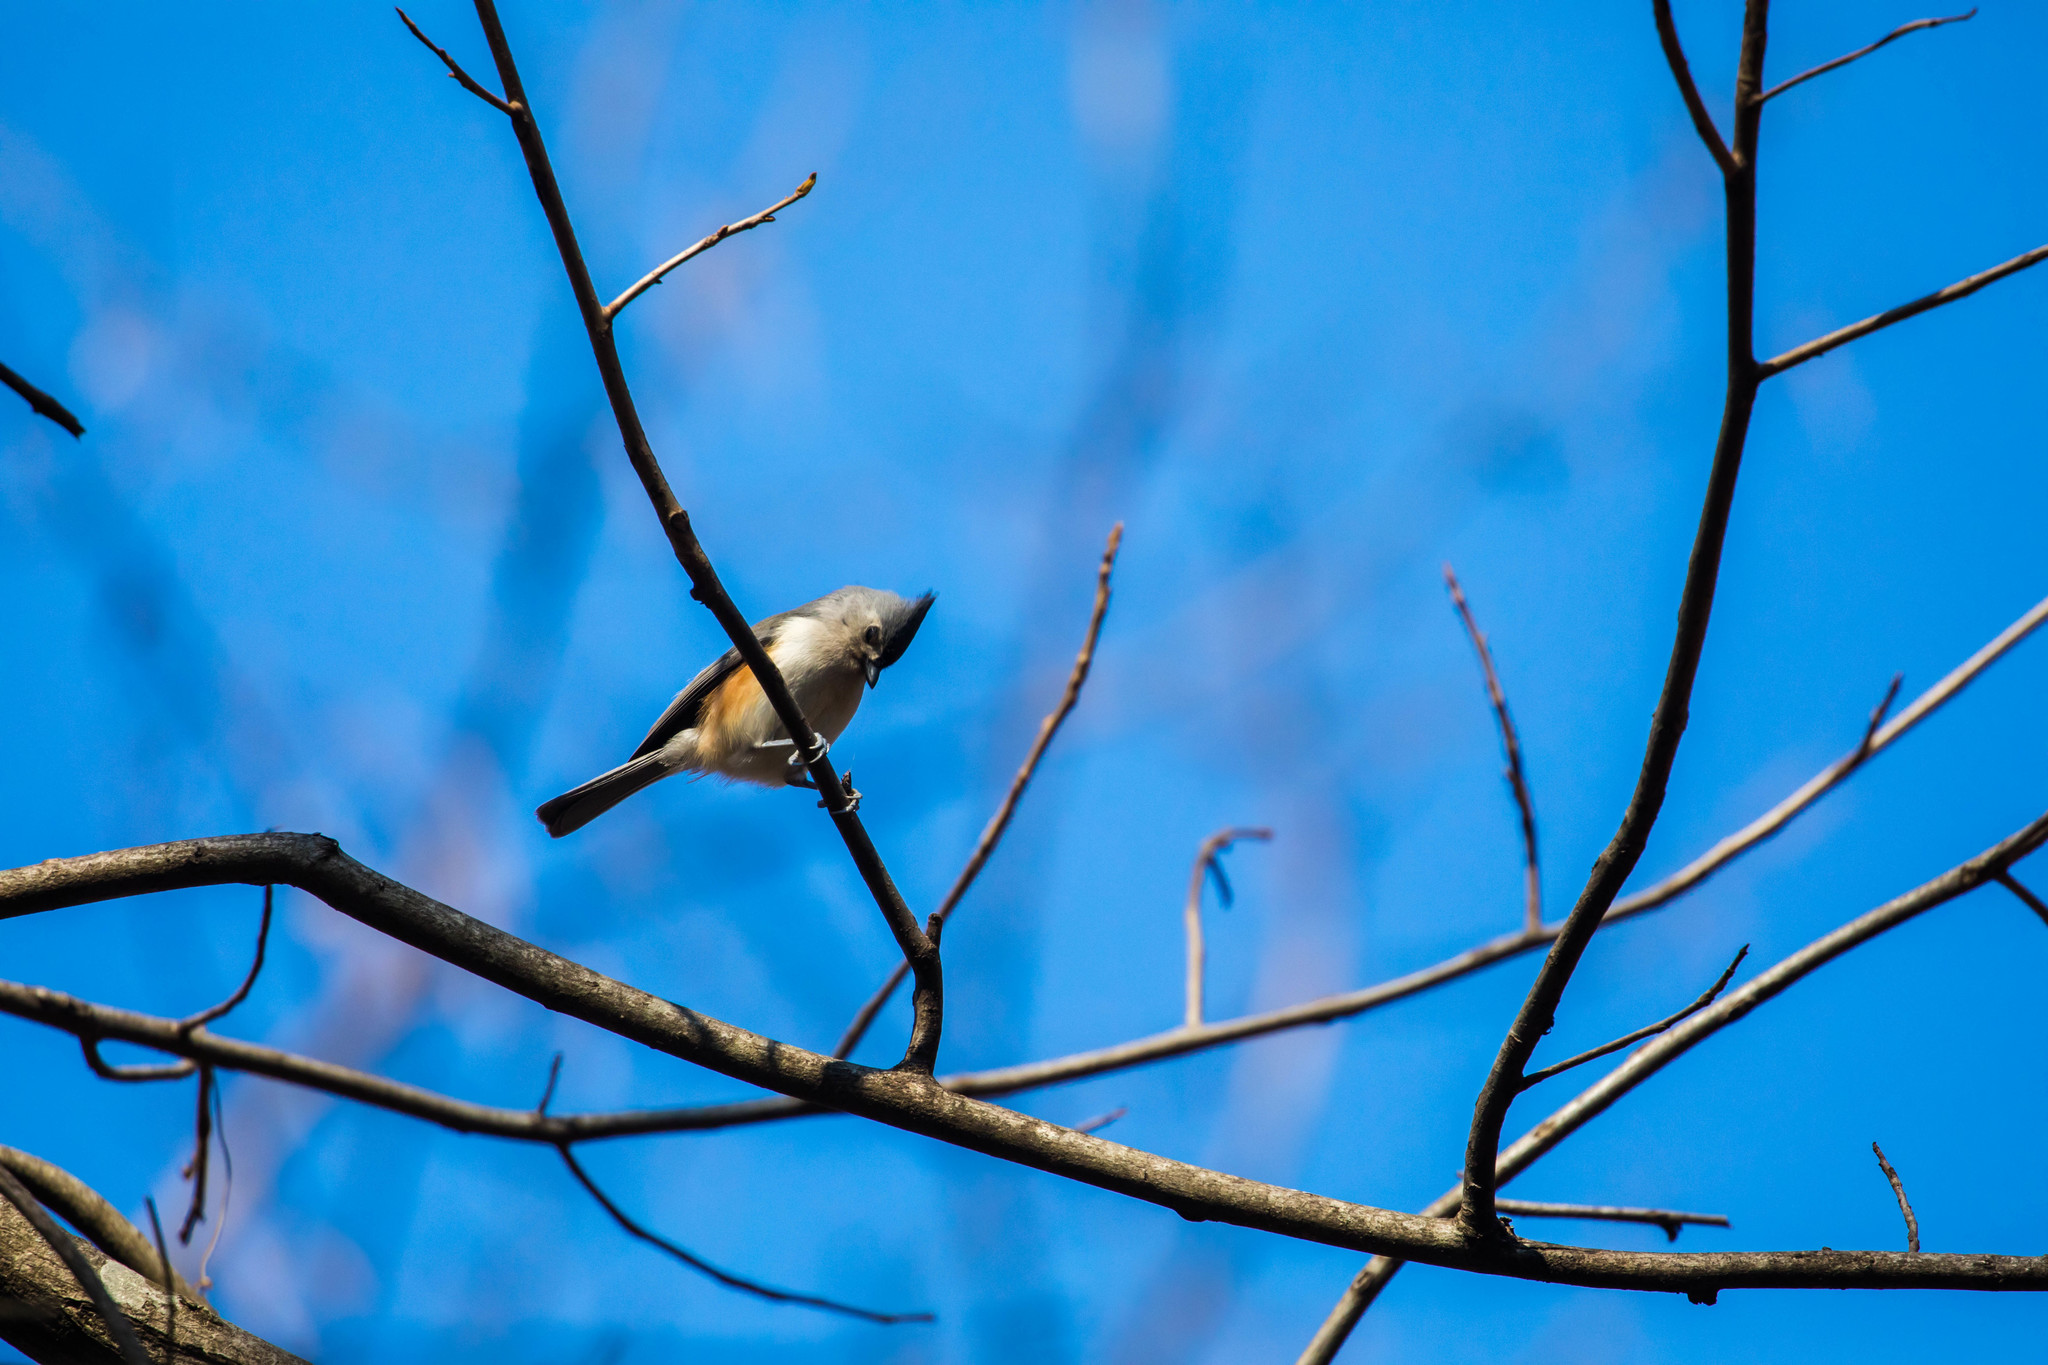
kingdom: Animalia
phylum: Chordata
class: Aves
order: Passeriformes
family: Paridae
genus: Baeolophus
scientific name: Baeolophus bicolor
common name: Tufted titmouse
